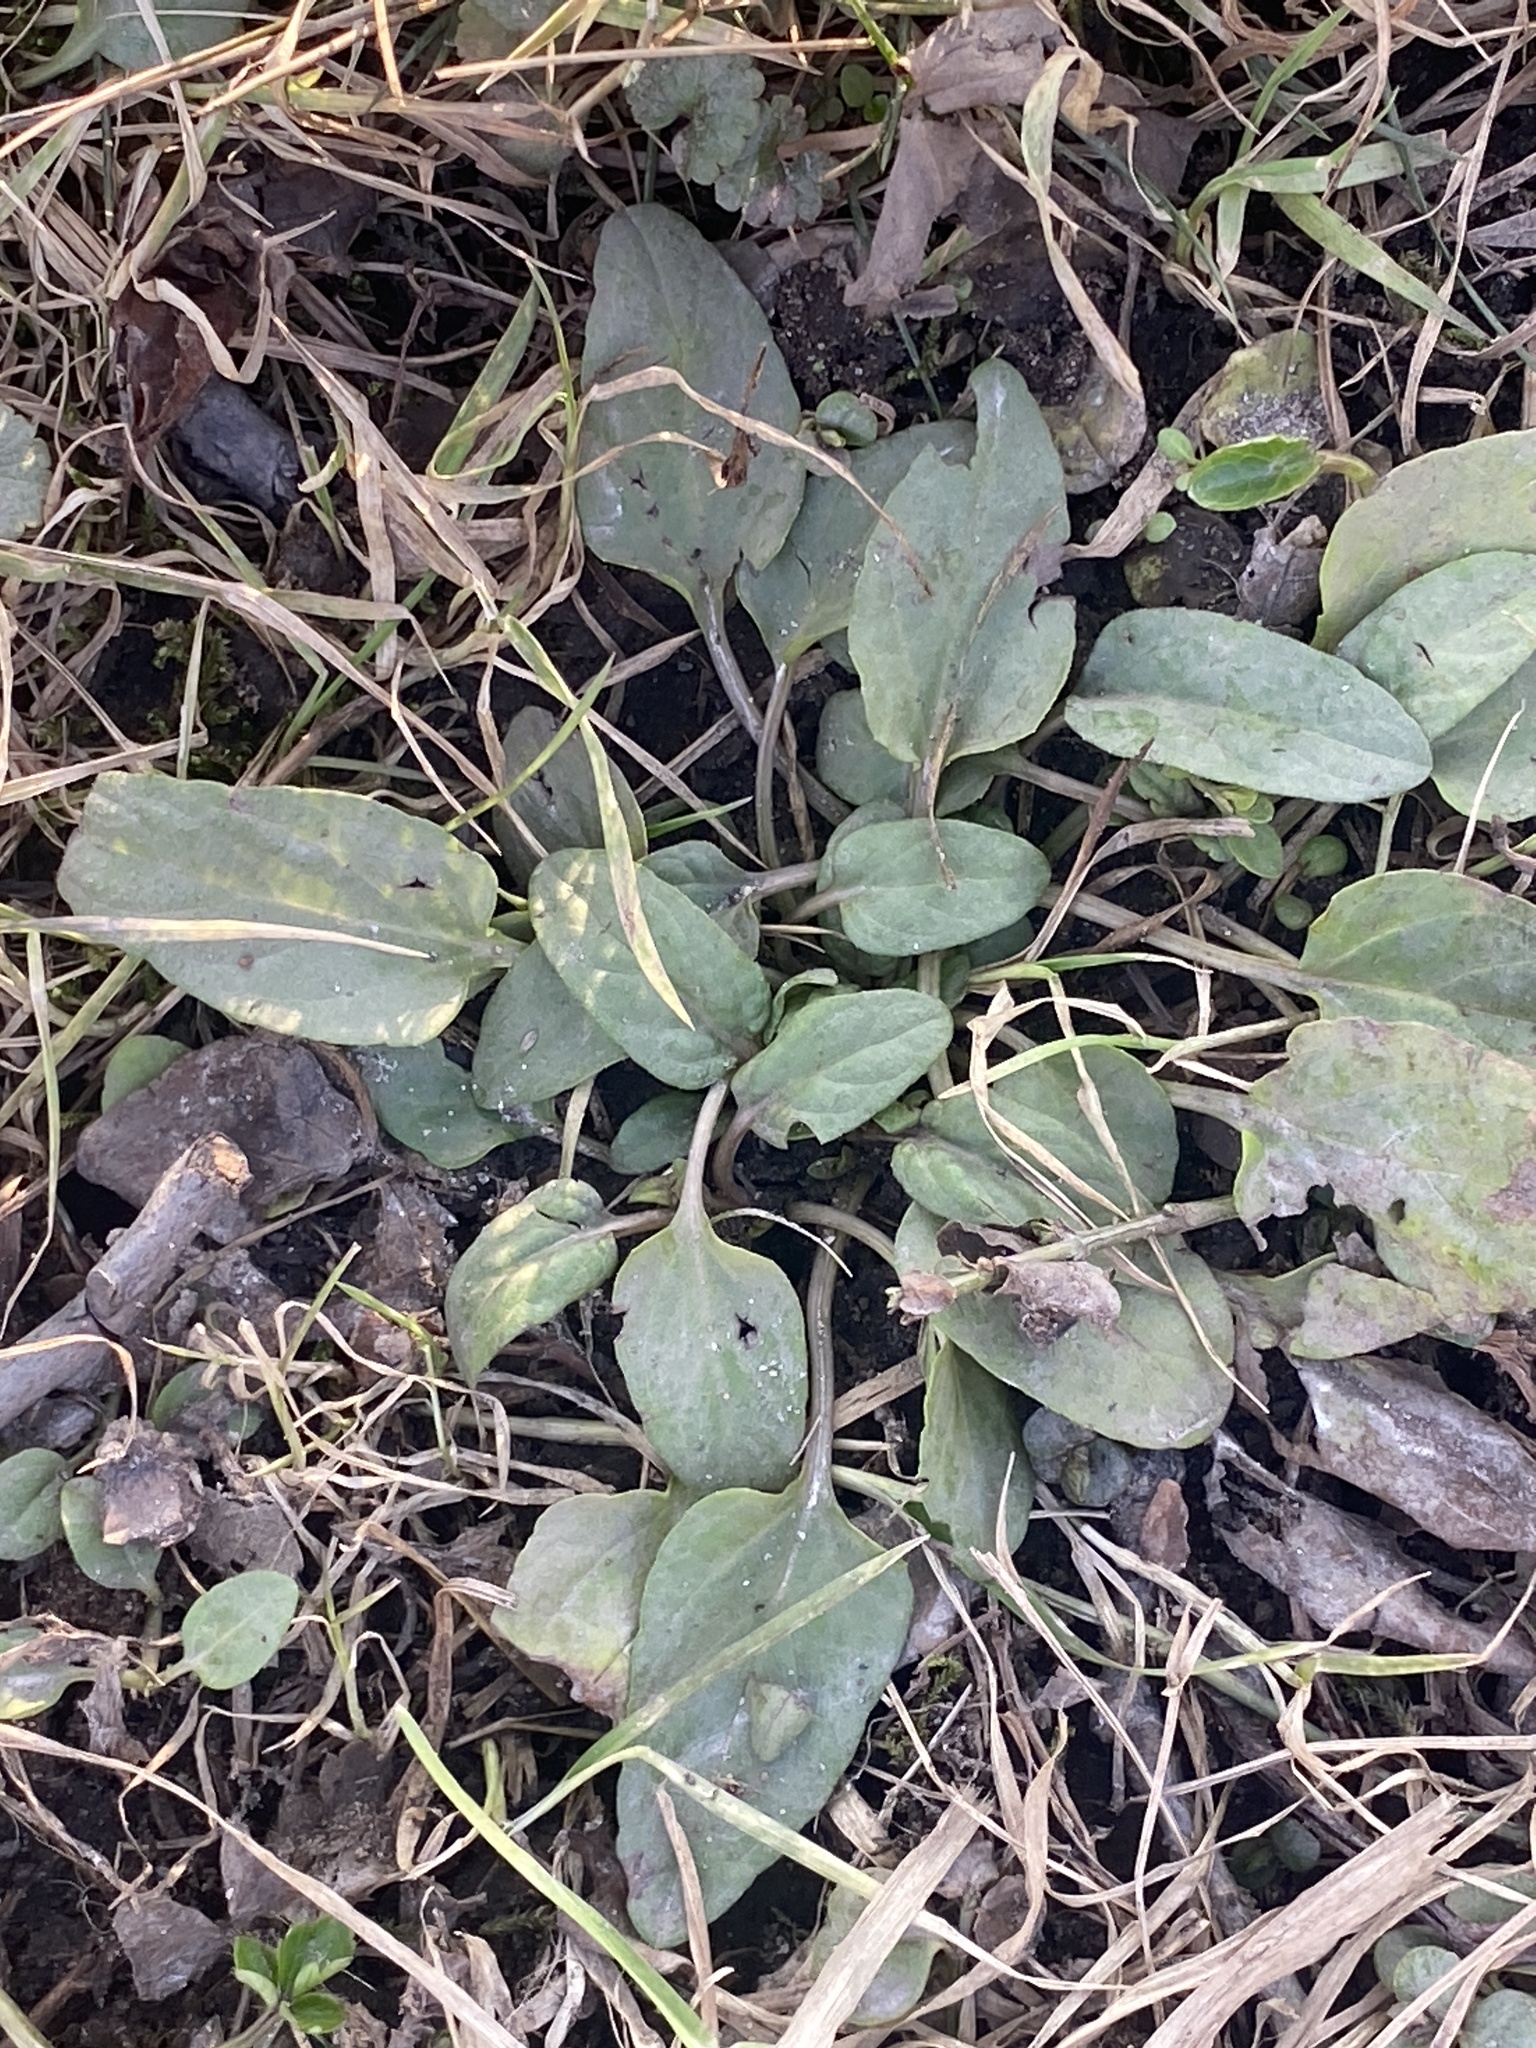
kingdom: Plantae
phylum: Tracheophyta
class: Magnoliopsida
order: Lamiales
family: Lamiaceae
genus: Prunella
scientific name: Prunella vulgaris
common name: Heal-all
